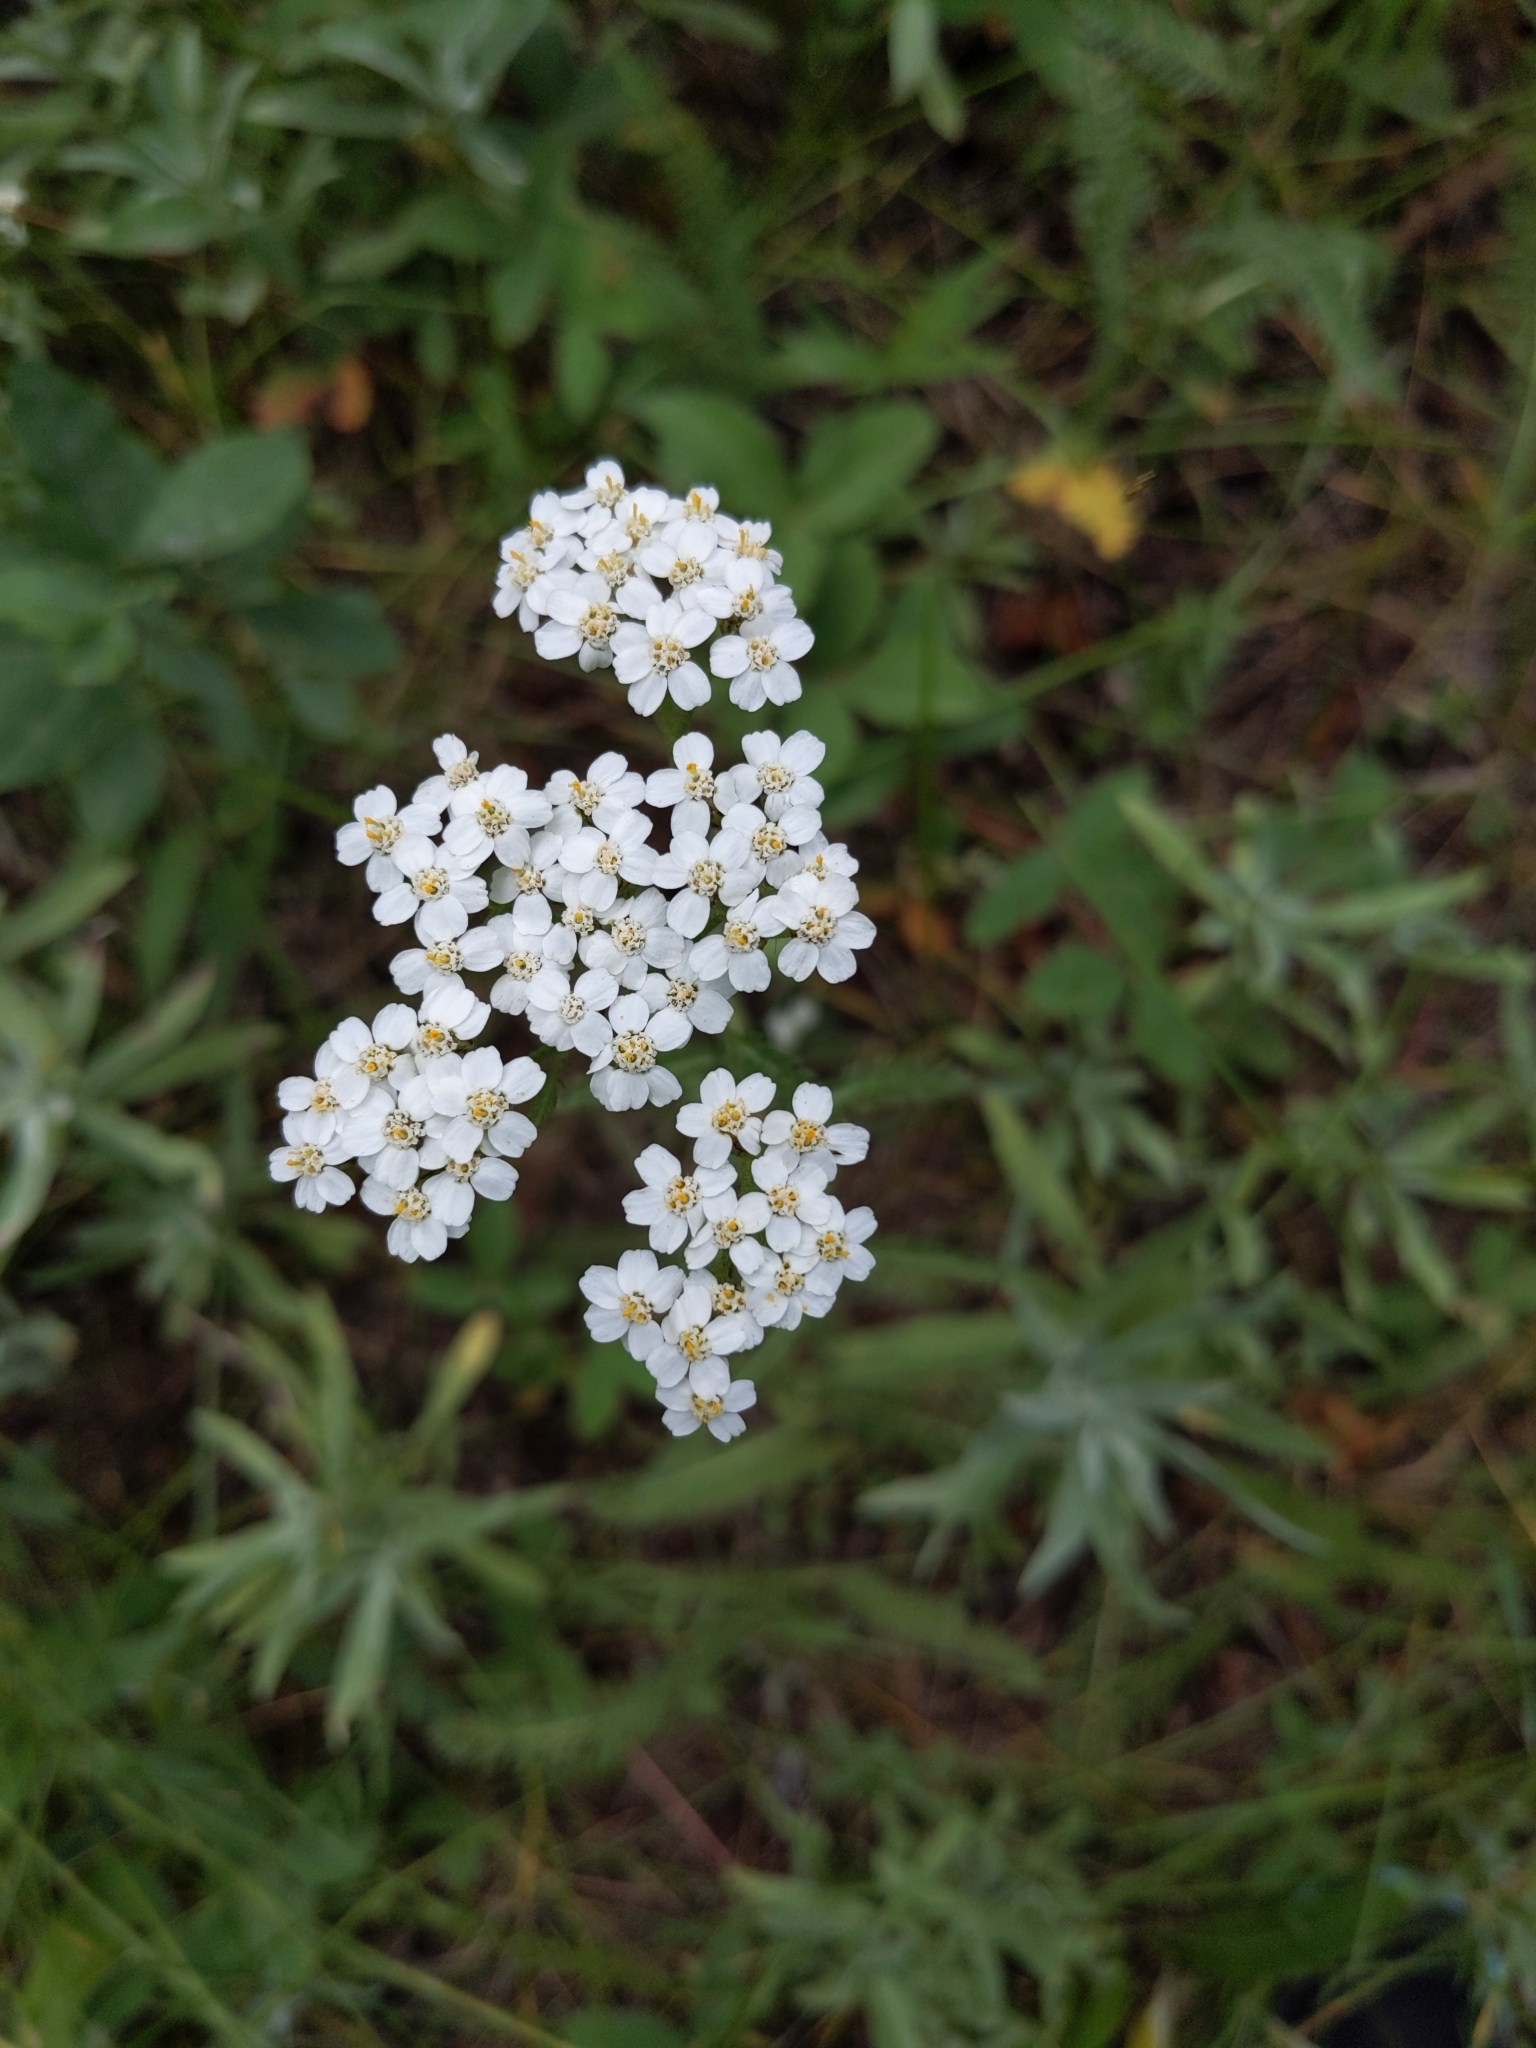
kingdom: Plantae
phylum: Tracheophyta
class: Magnoliopsida
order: Asterales
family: Asteraceae
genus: Achillea
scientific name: Achillea millefolium
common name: Yarrow
